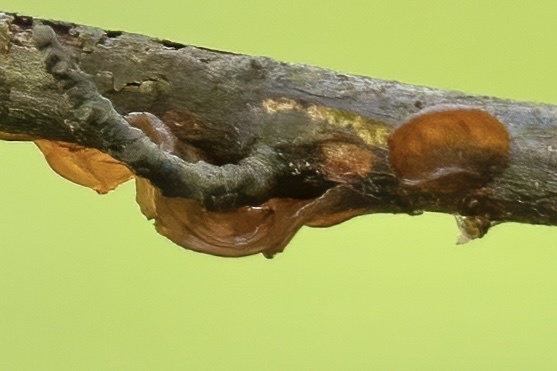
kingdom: Fungi
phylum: Basidiomycota
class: Agaricomycetes
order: Auriculariales
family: Auriculariaceae
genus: Exidia
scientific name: Exidia recisa
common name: Amber jelly
